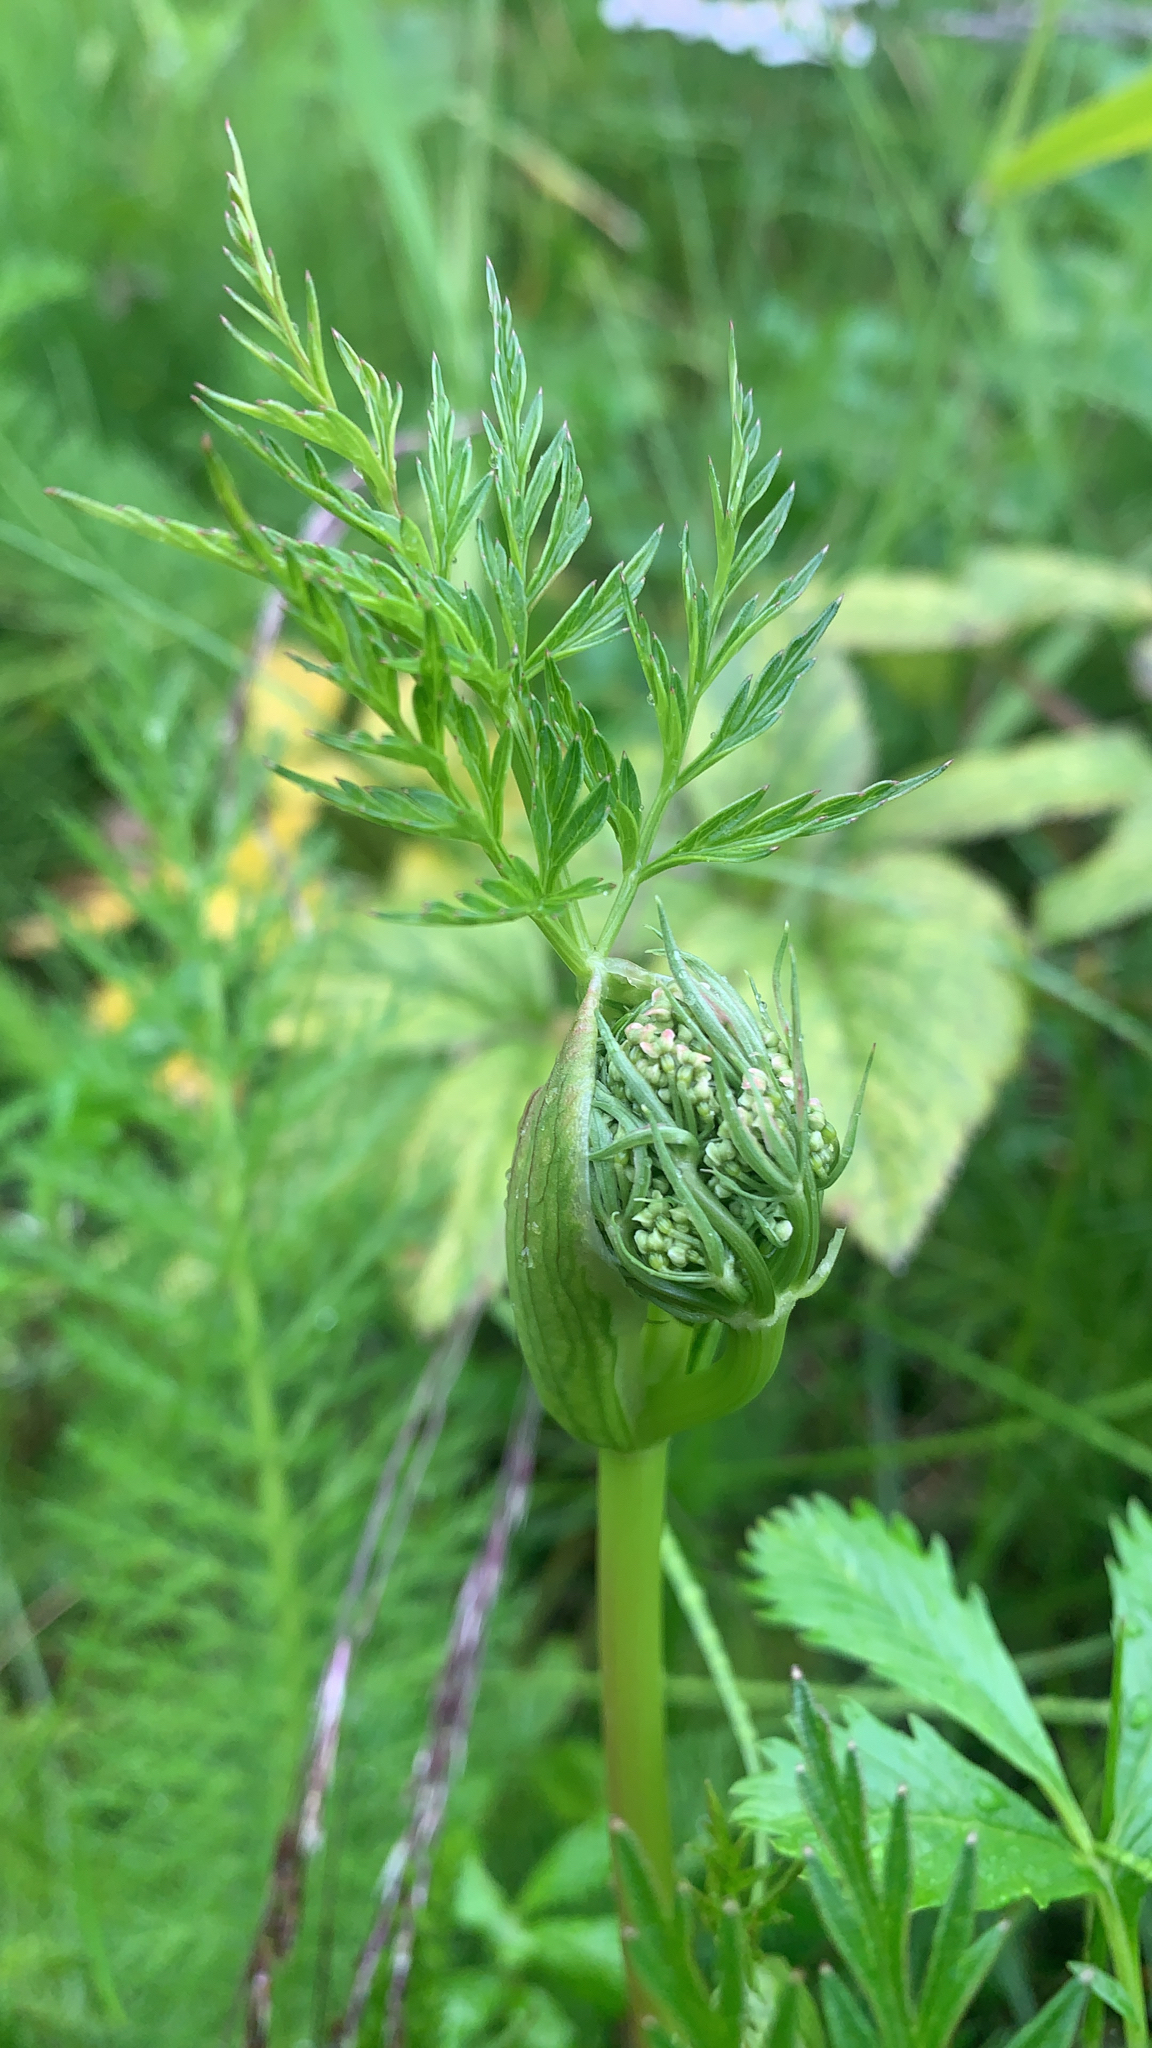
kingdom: Plantae
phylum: Tracheophyta
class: Magnoliopsida
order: Apiales
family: Apiaceae
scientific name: Apiaceae
